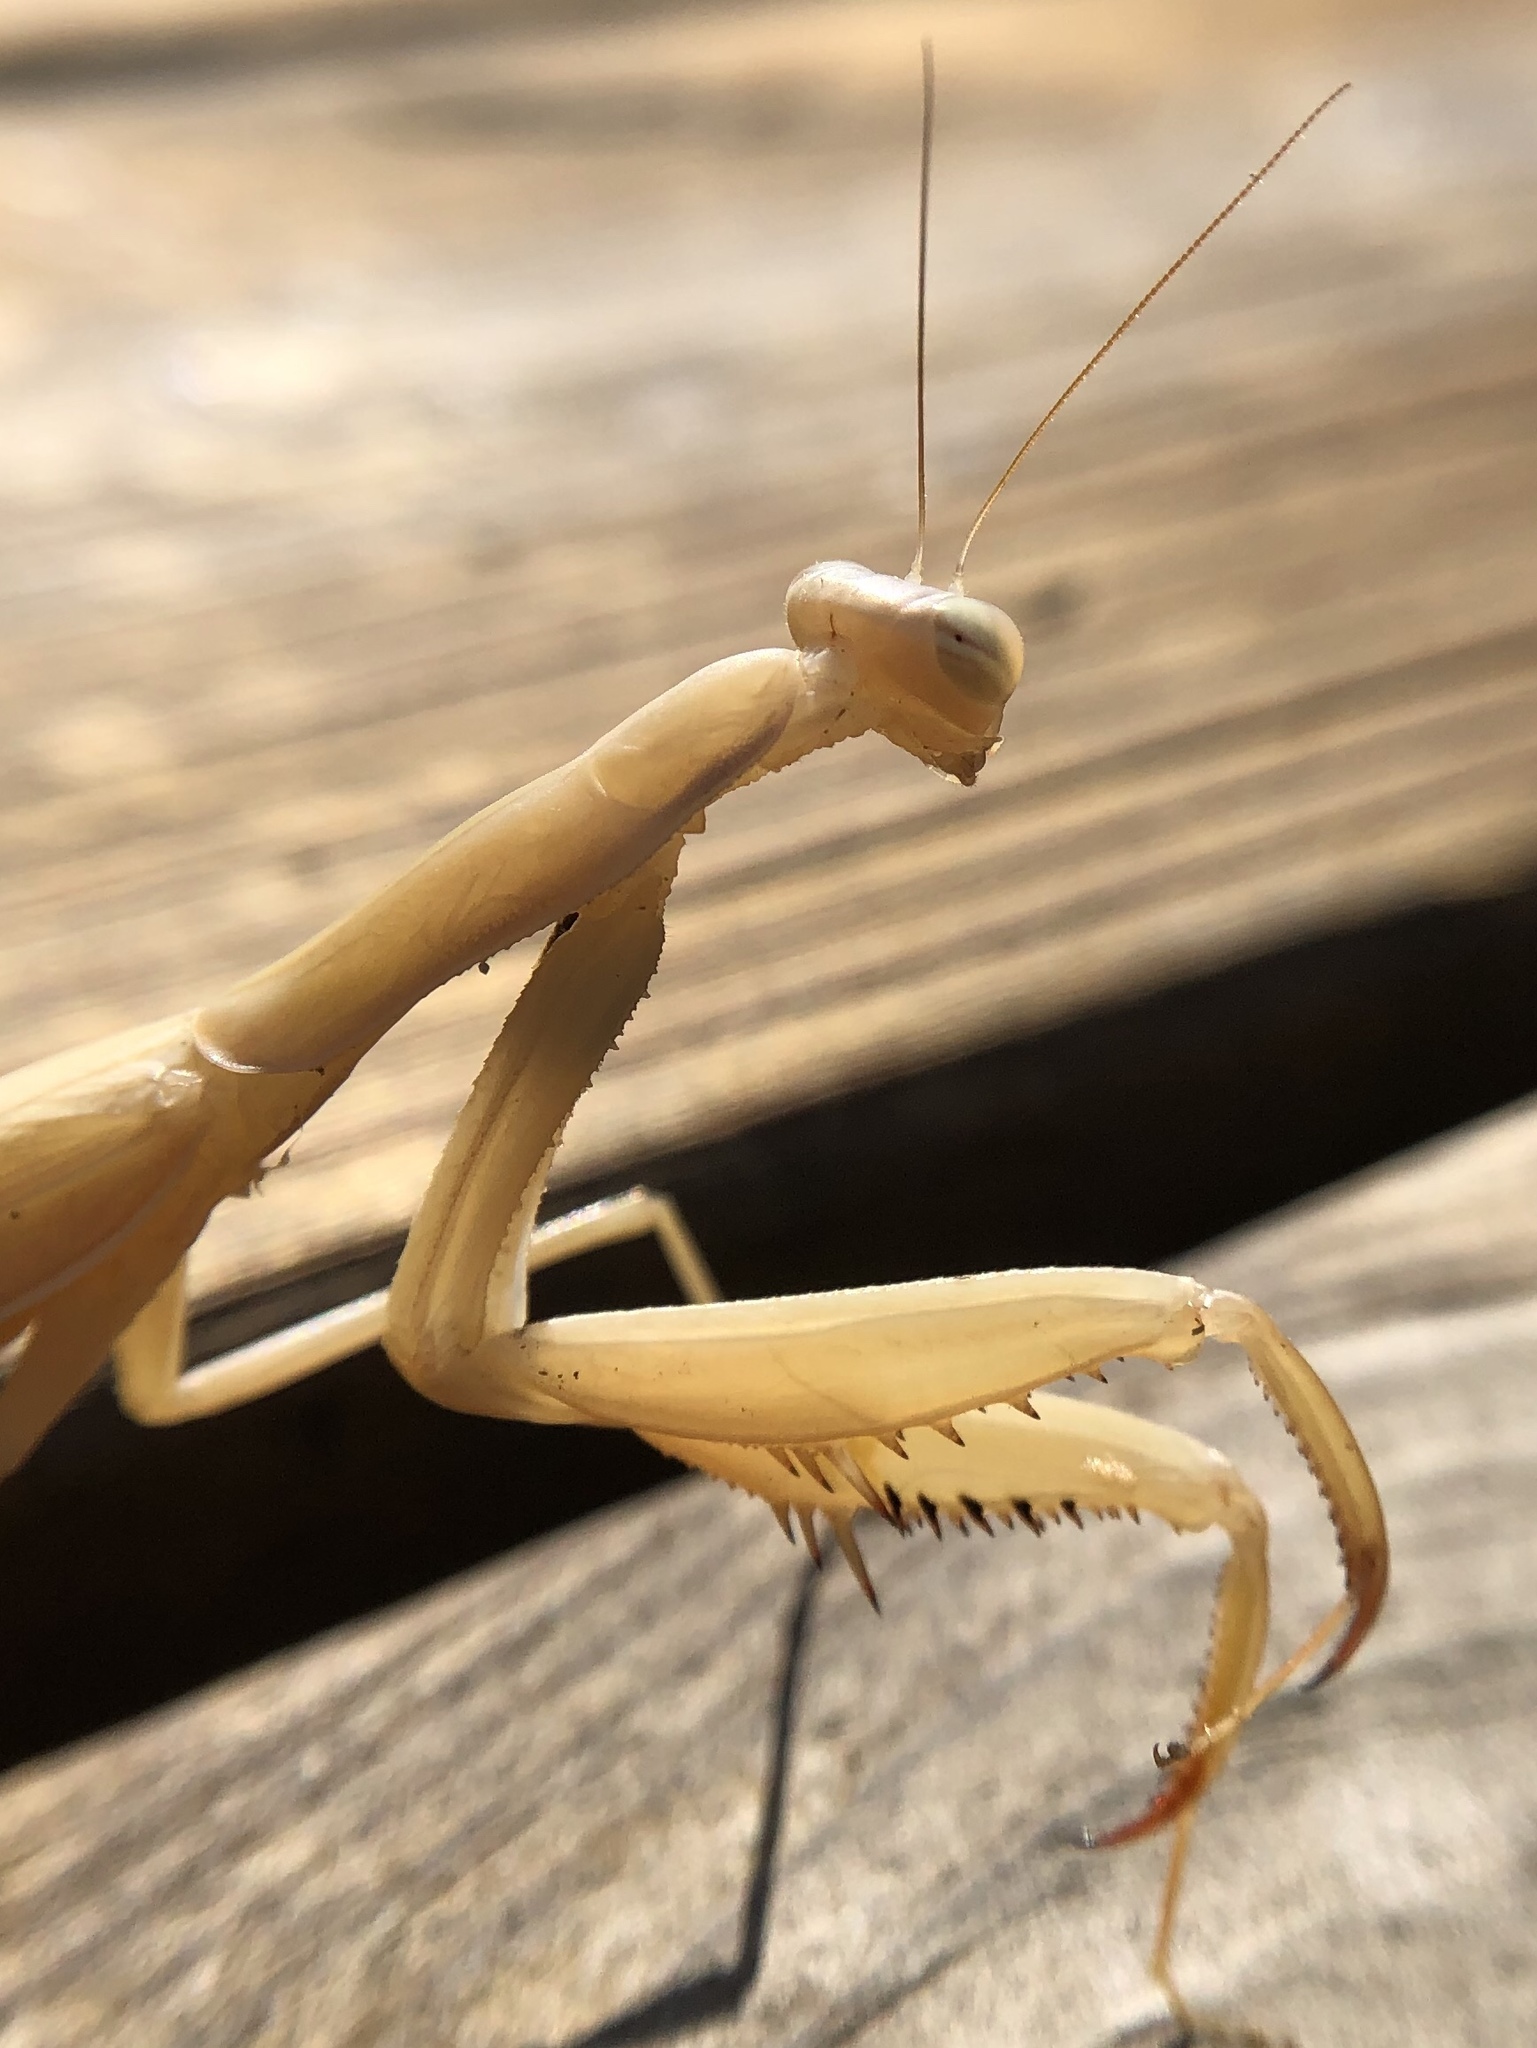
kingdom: Animalia
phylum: Arthropoda
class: Insecta
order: Mantodea
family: Mantidae
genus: Mantis
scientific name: Mantis religiosa
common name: Praying mantis
